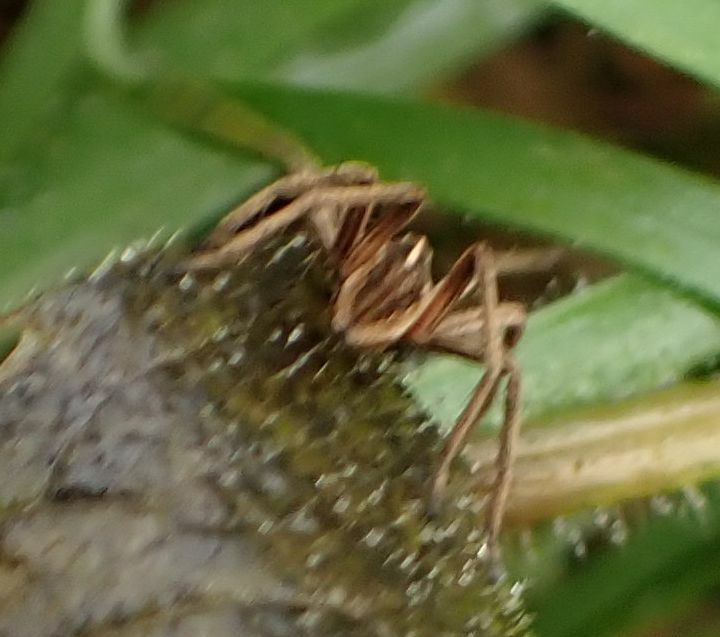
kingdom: Animalia
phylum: Arthropoda
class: Arachnida
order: Araneae
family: Pisauridae
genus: Pisaura
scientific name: Pisaura mirabilis
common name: Tent spider
